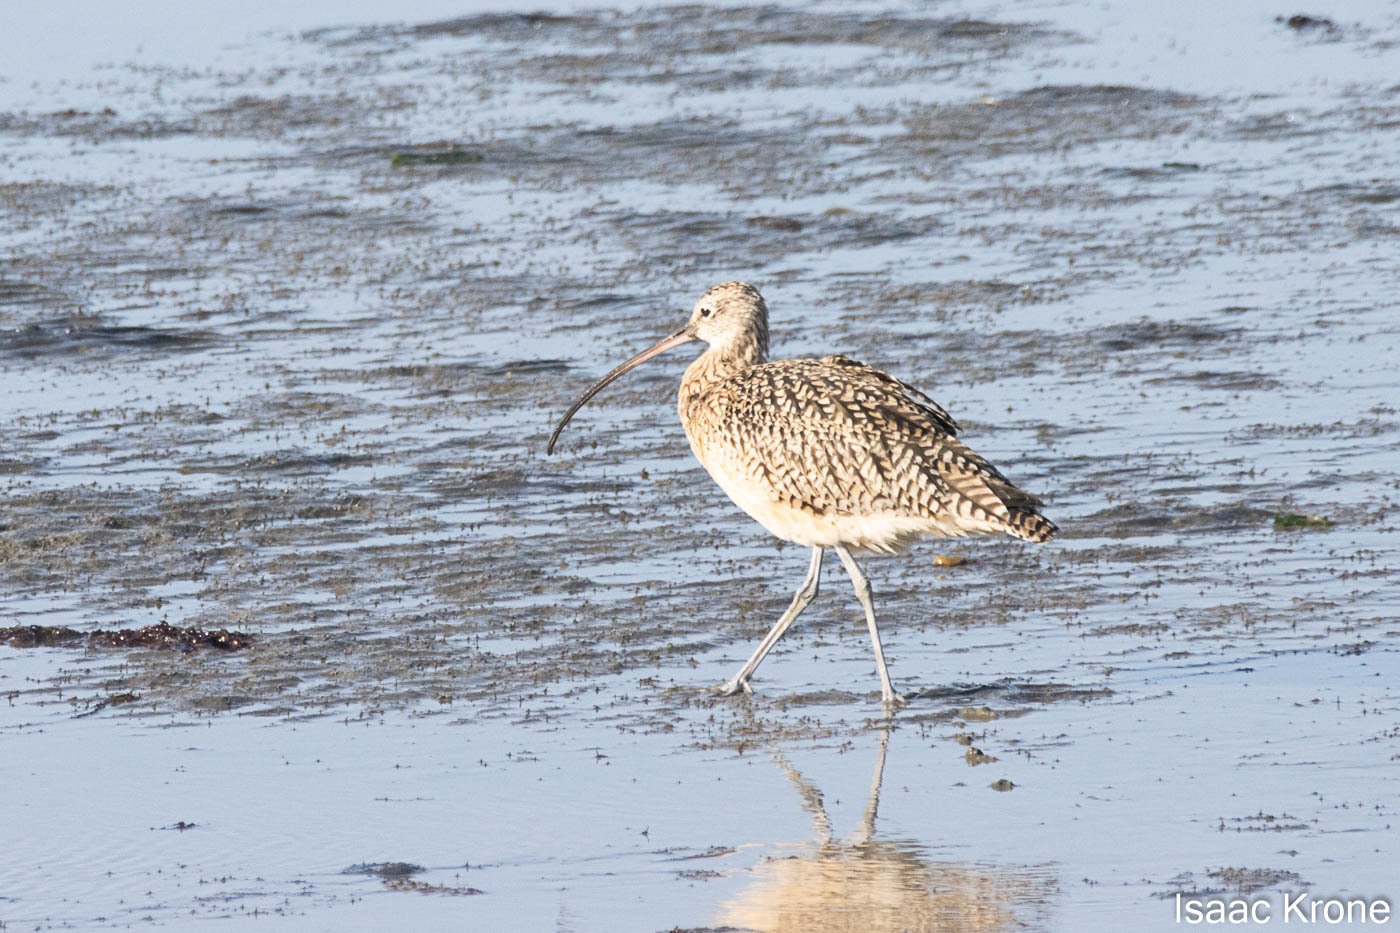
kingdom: Animalia
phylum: Chordata
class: Aves
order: Charadriiformes
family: Scolopacidae
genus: Numenius
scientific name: Numenius americanus
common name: Long-billed curlew
